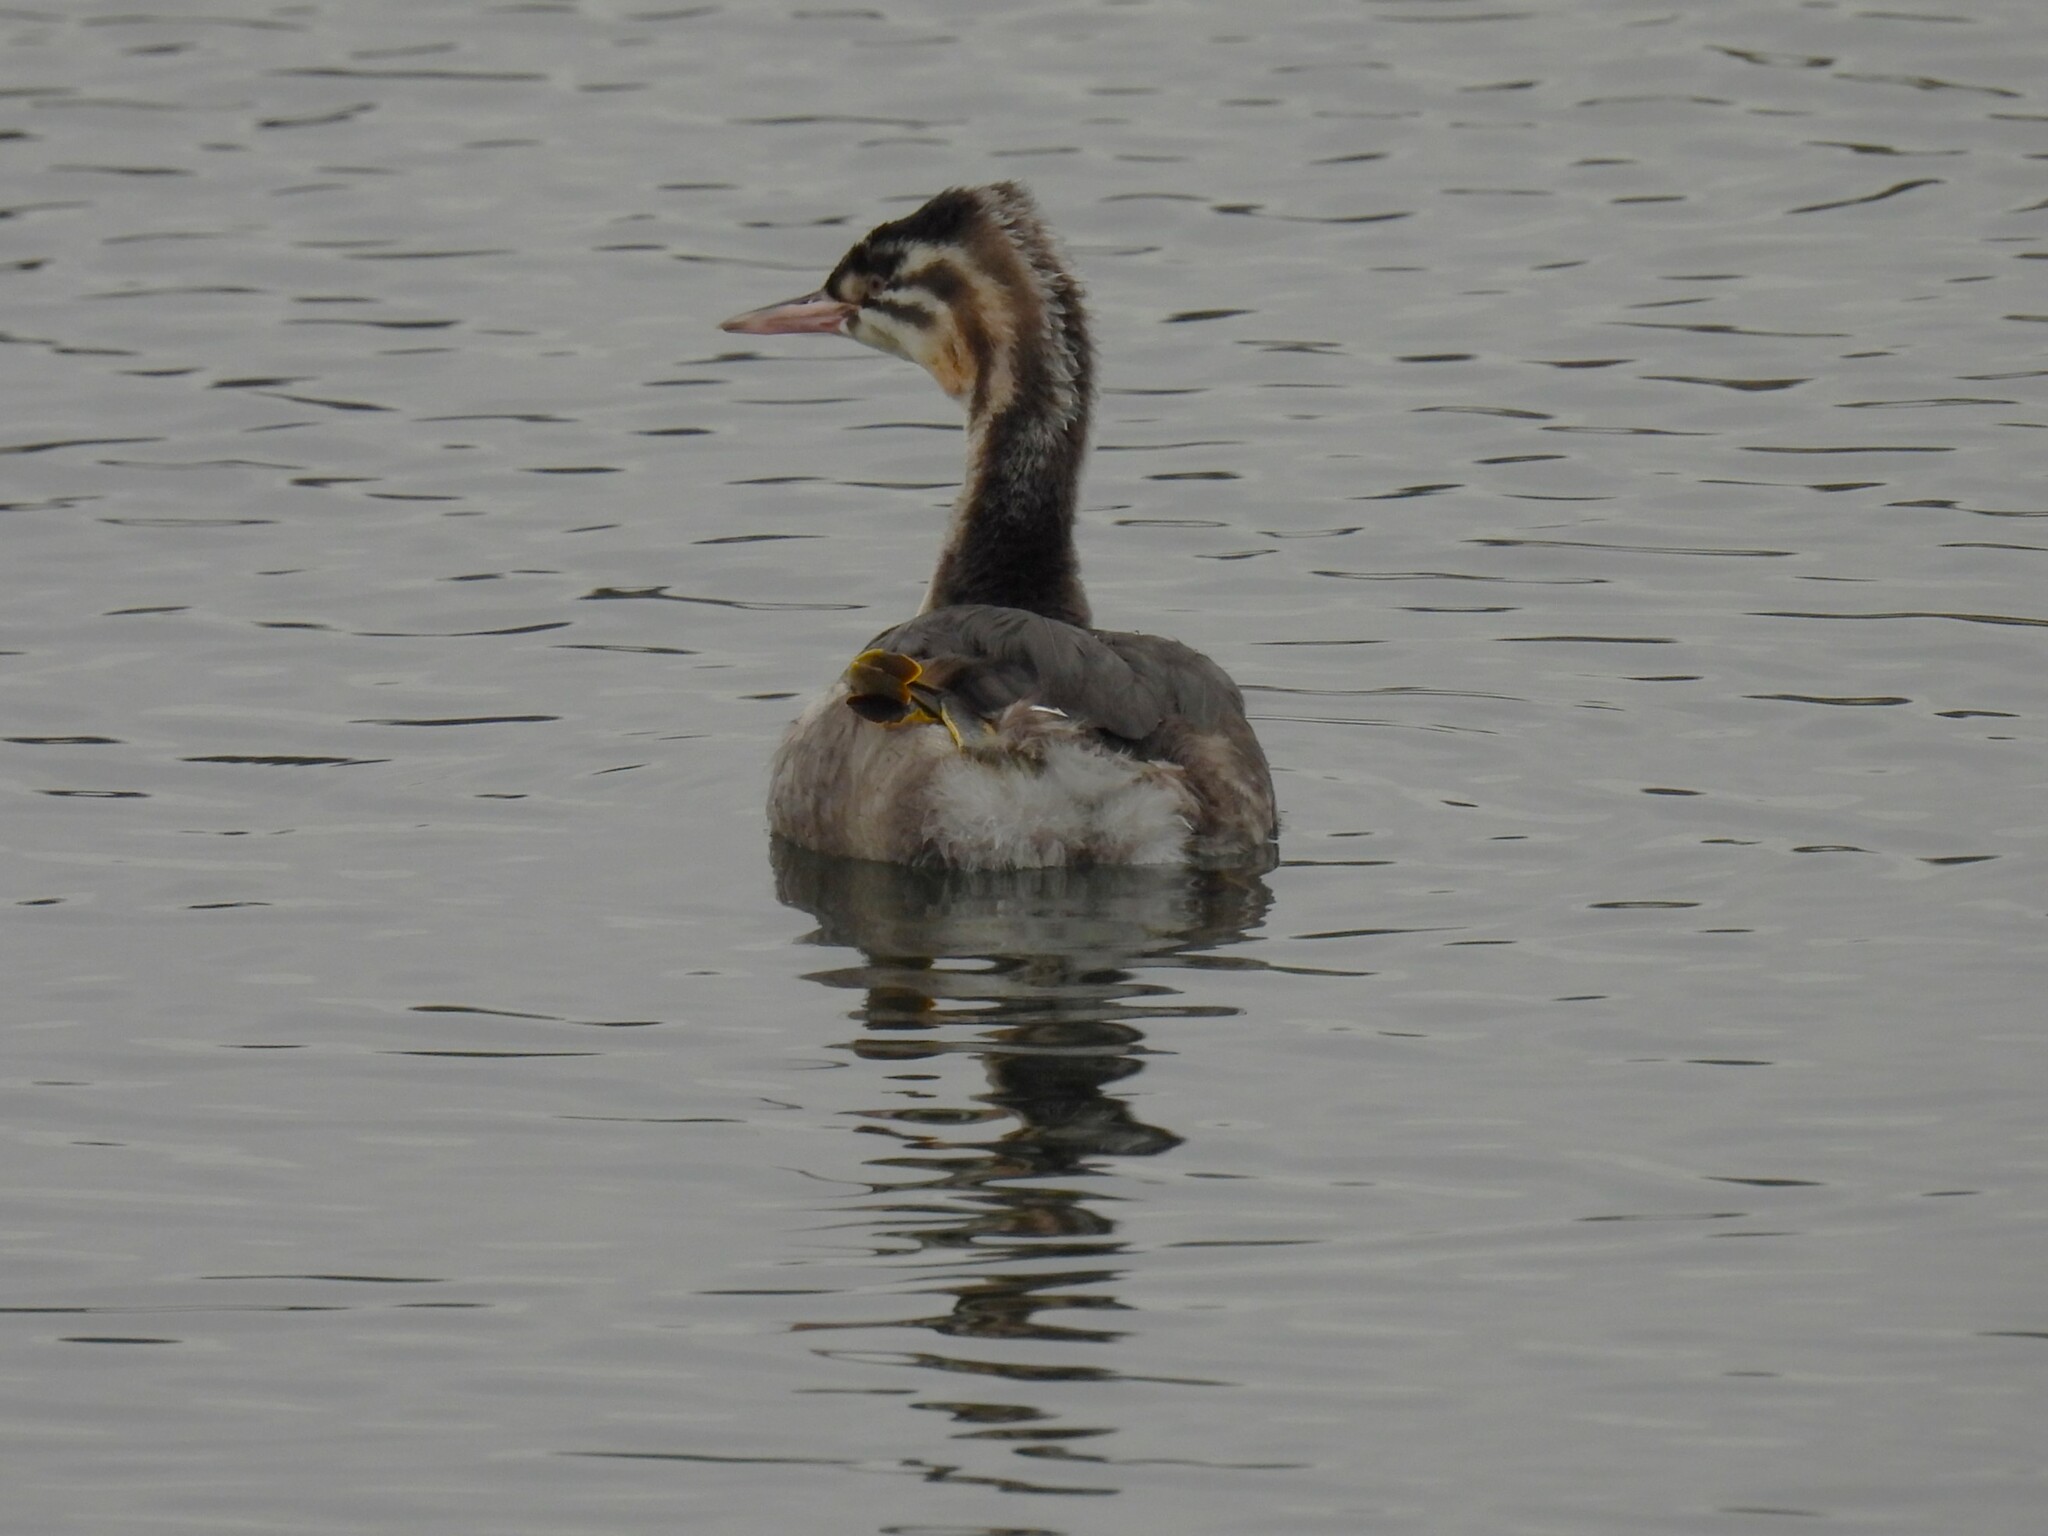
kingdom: Animalia
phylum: Chordata
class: Aves
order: Podicipediformes
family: Podicipedidae
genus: Podiceps
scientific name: Podiceps cristatus
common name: Great crested grebe
